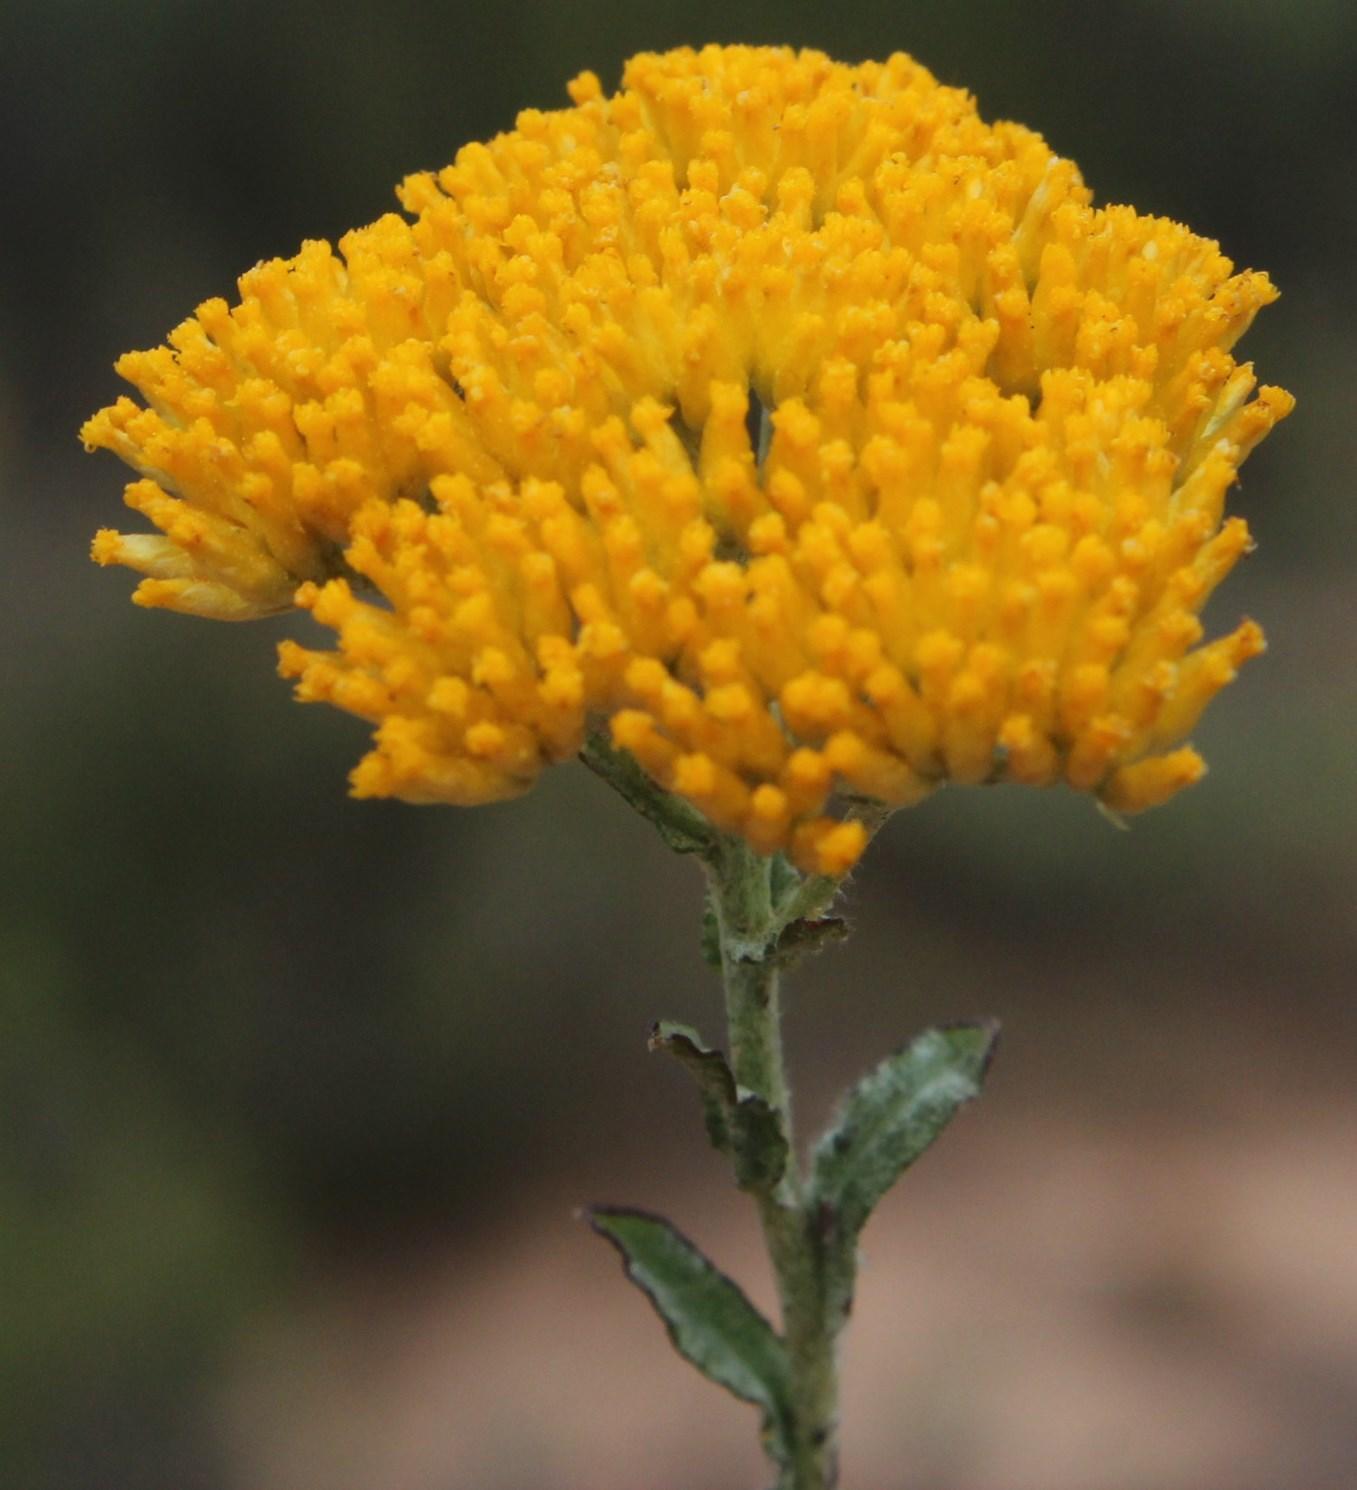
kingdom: Plantae
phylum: Tracheophyta
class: Magnoliopsida
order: Asterales
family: Asteraceae
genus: Helichrysum
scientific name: Helichrysum rutilans
